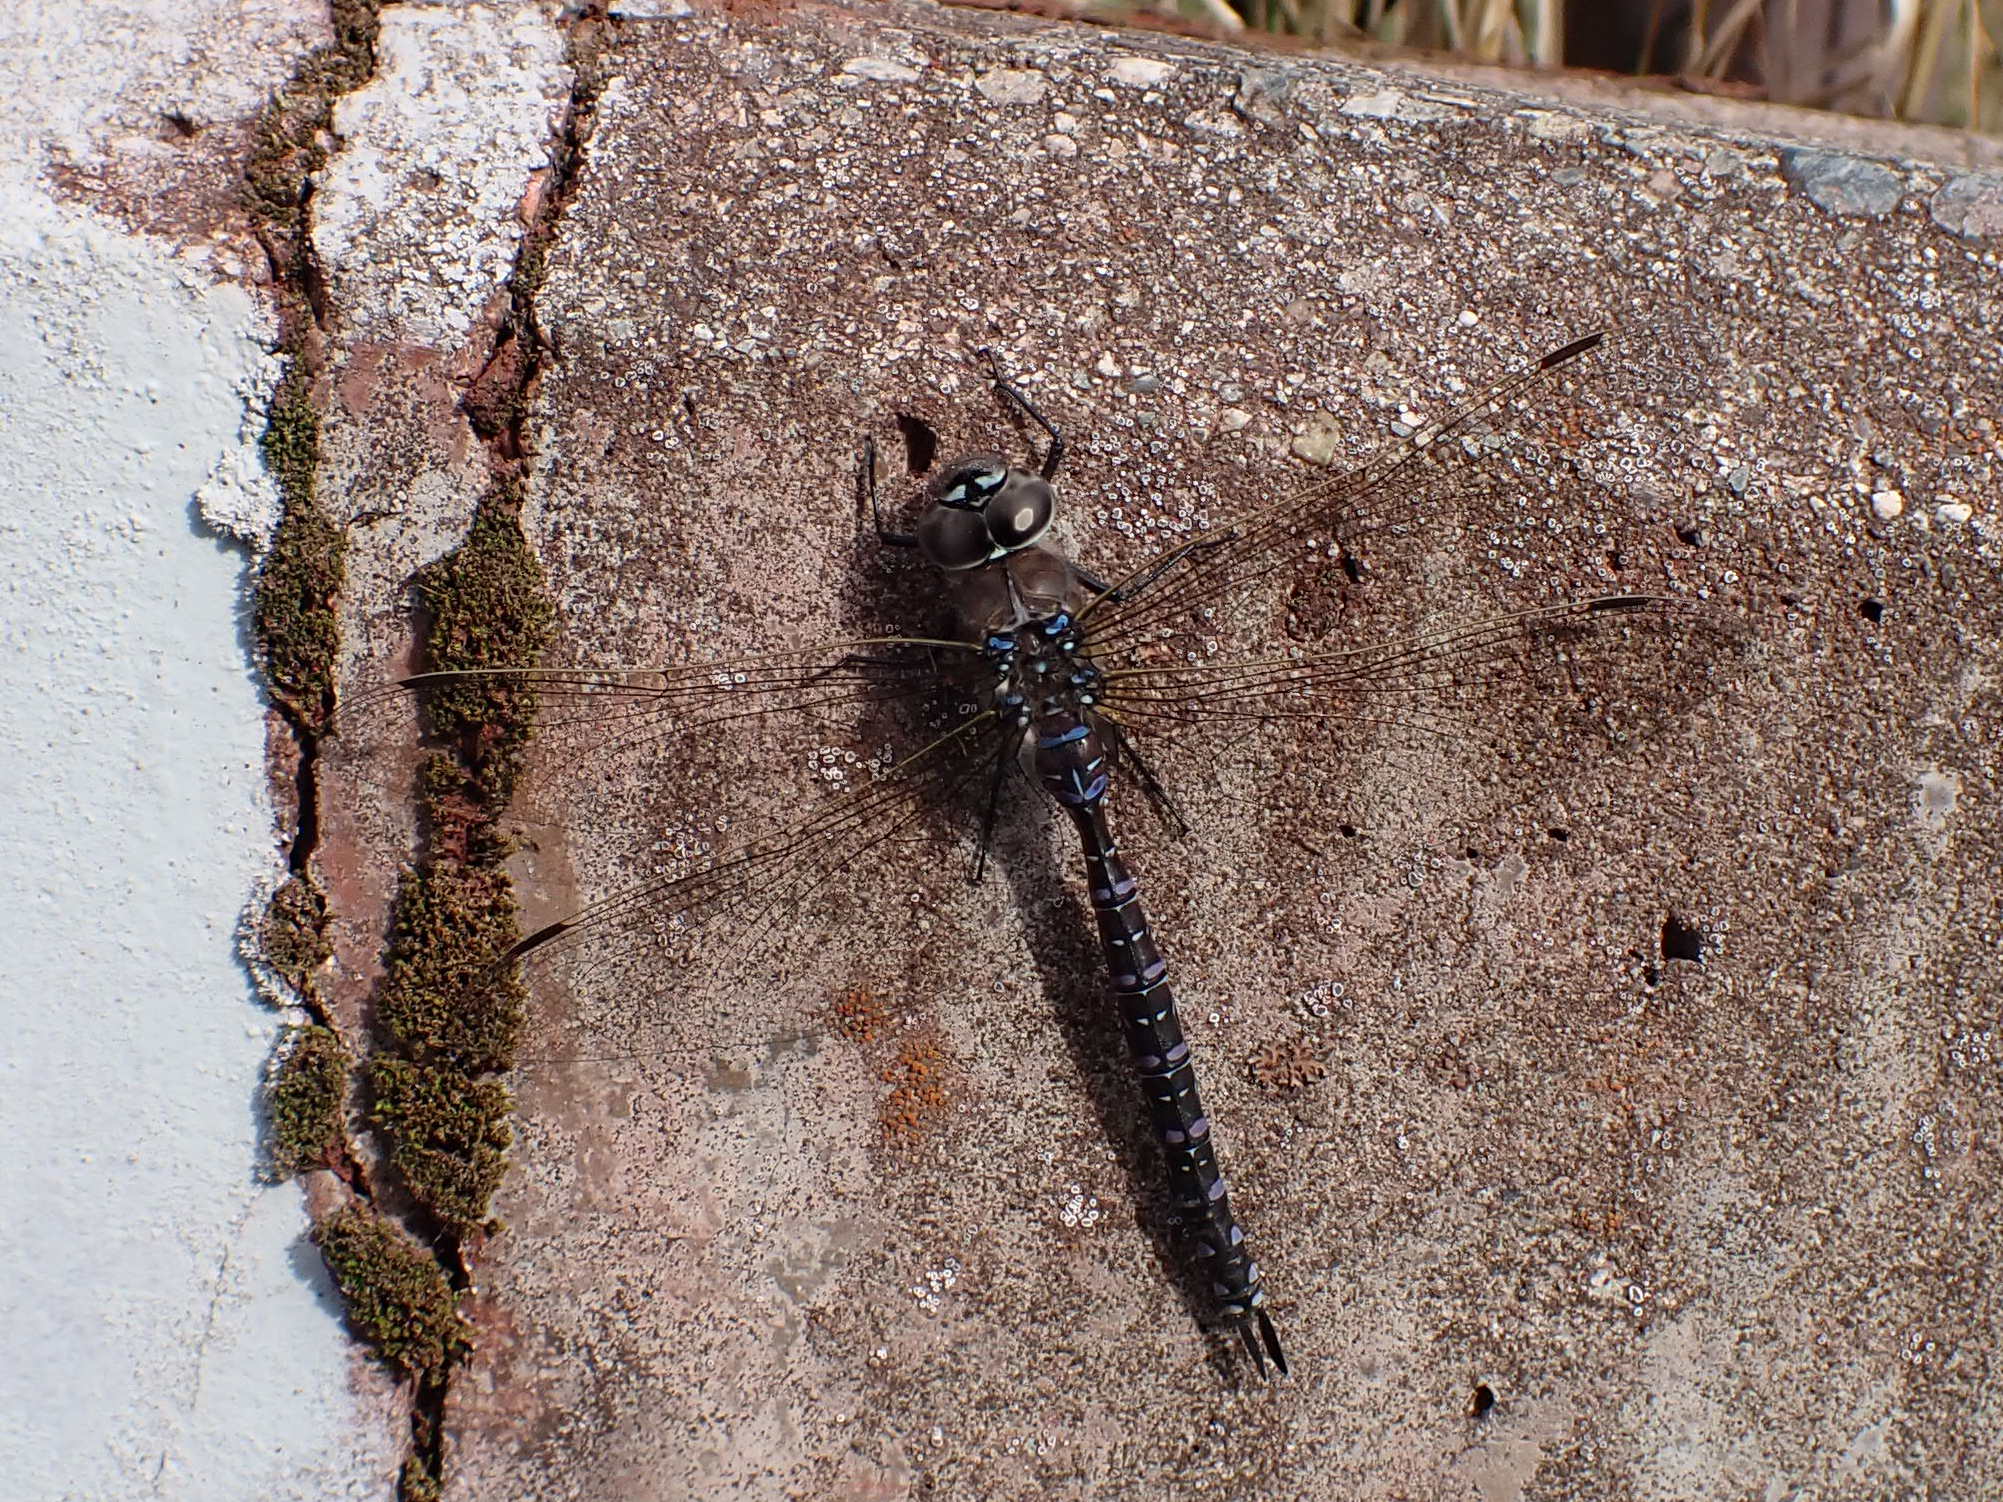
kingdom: Animalia
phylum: Arthropoda
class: Insecta
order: Odonata
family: Aeshnidae
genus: Aeshna
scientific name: Aeshna interrupta
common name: Variable darner
